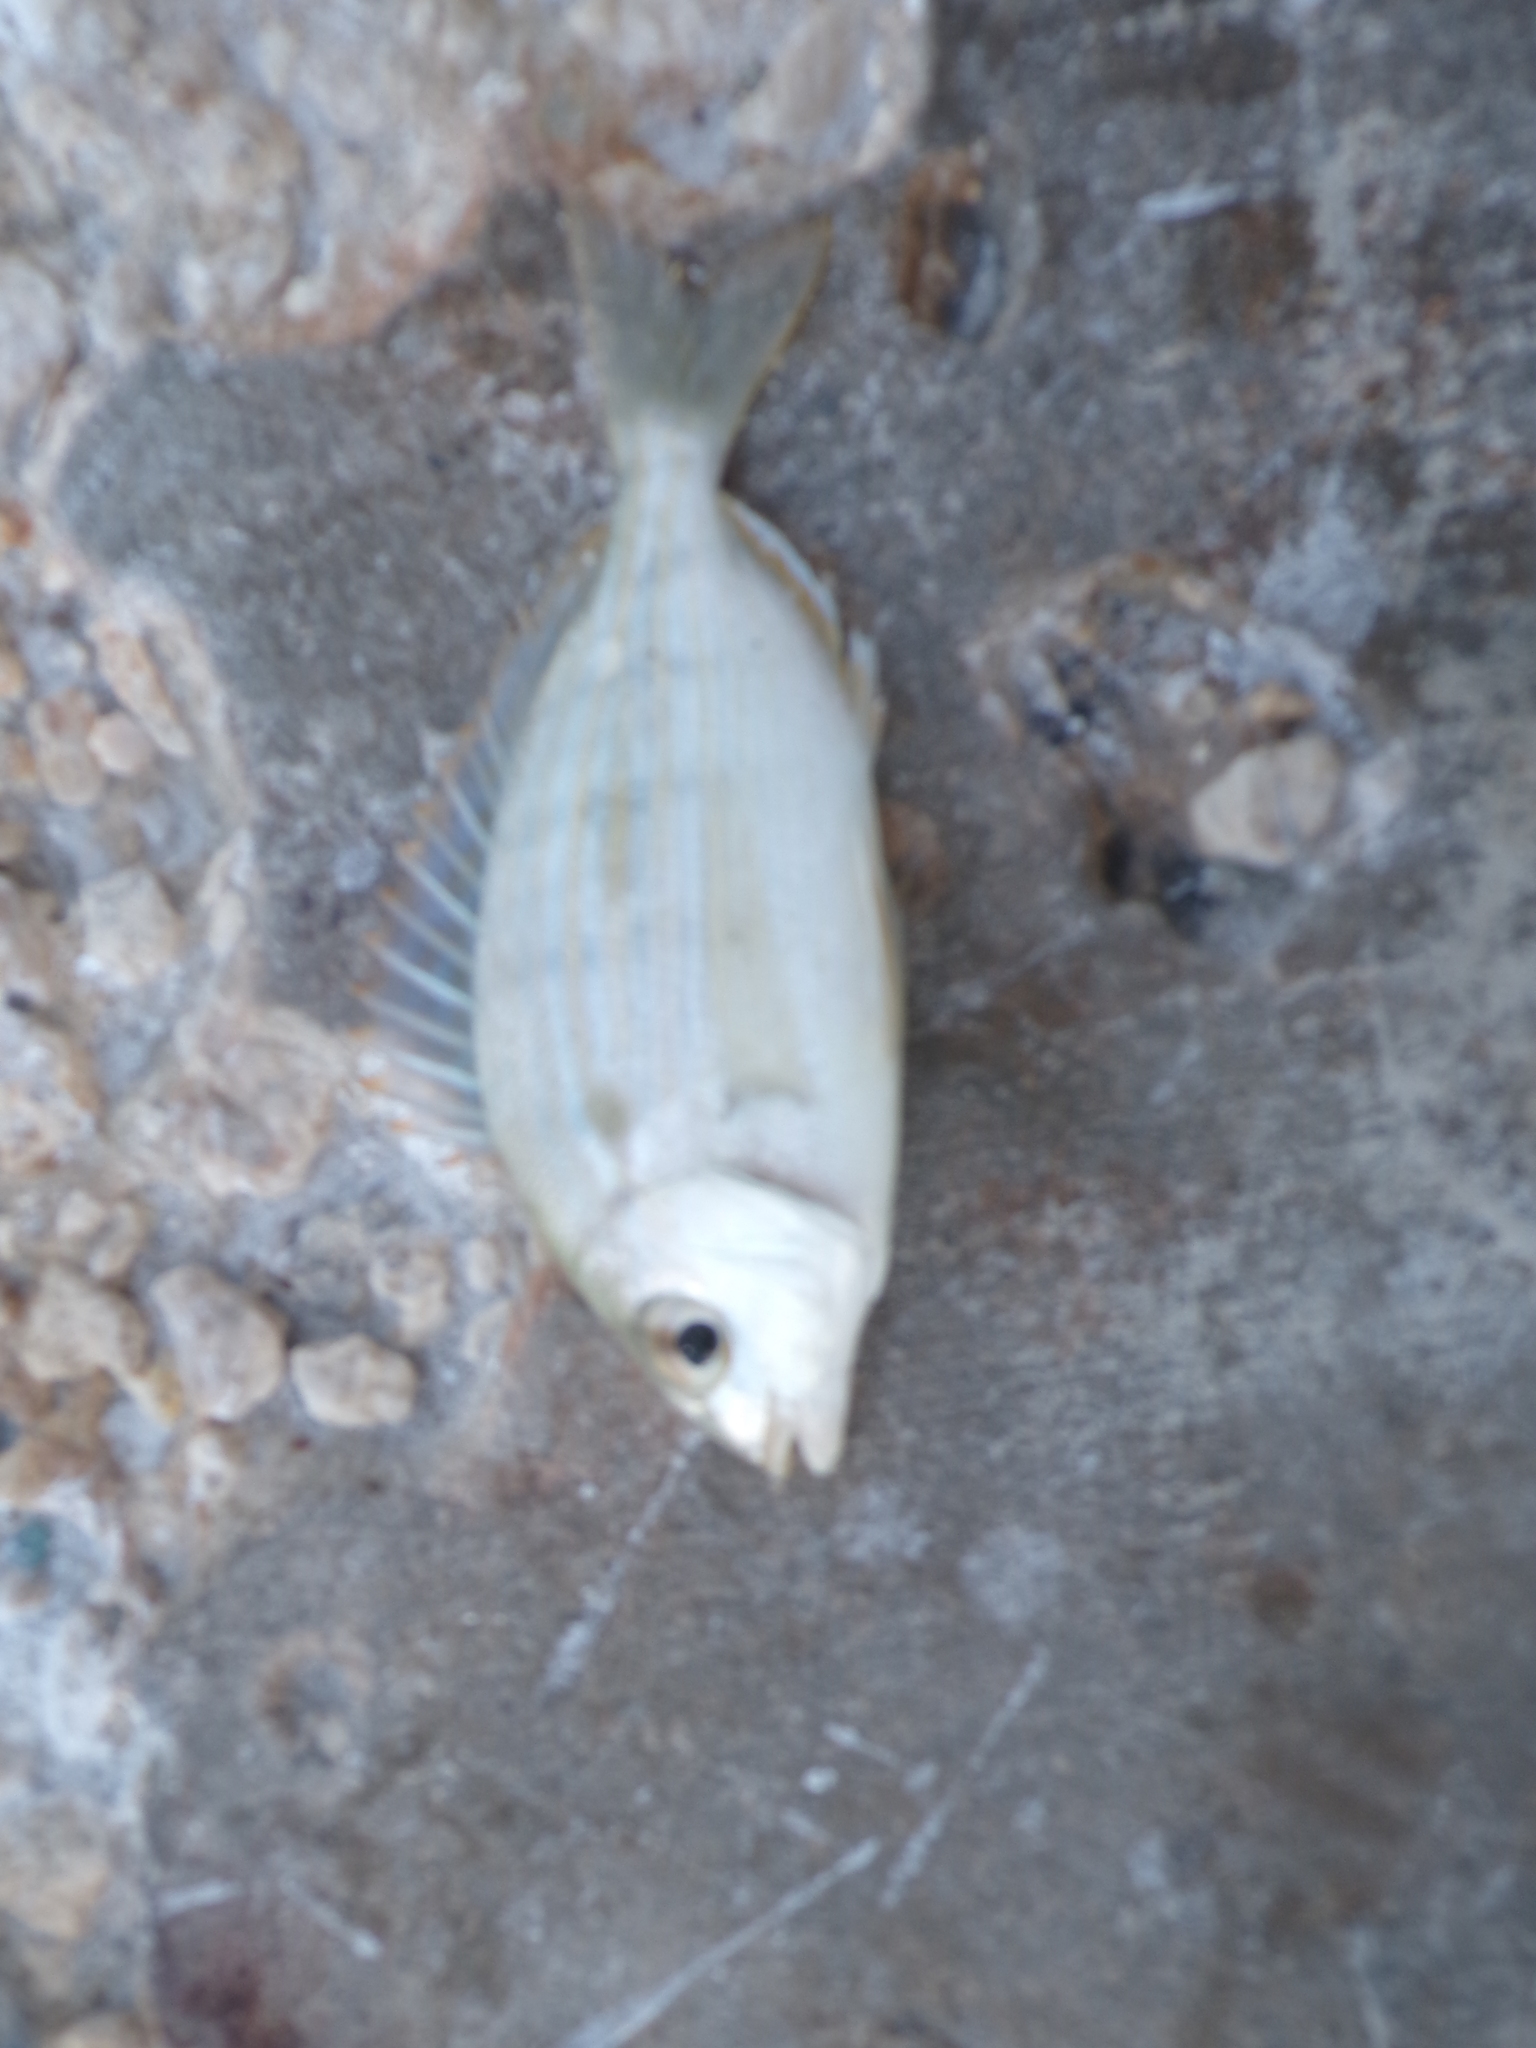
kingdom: Animalia
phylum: Chordata
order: Perciformes
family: Sparidae
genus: Lagodon
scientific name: Lagodon rhomboides
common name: Pinfish
